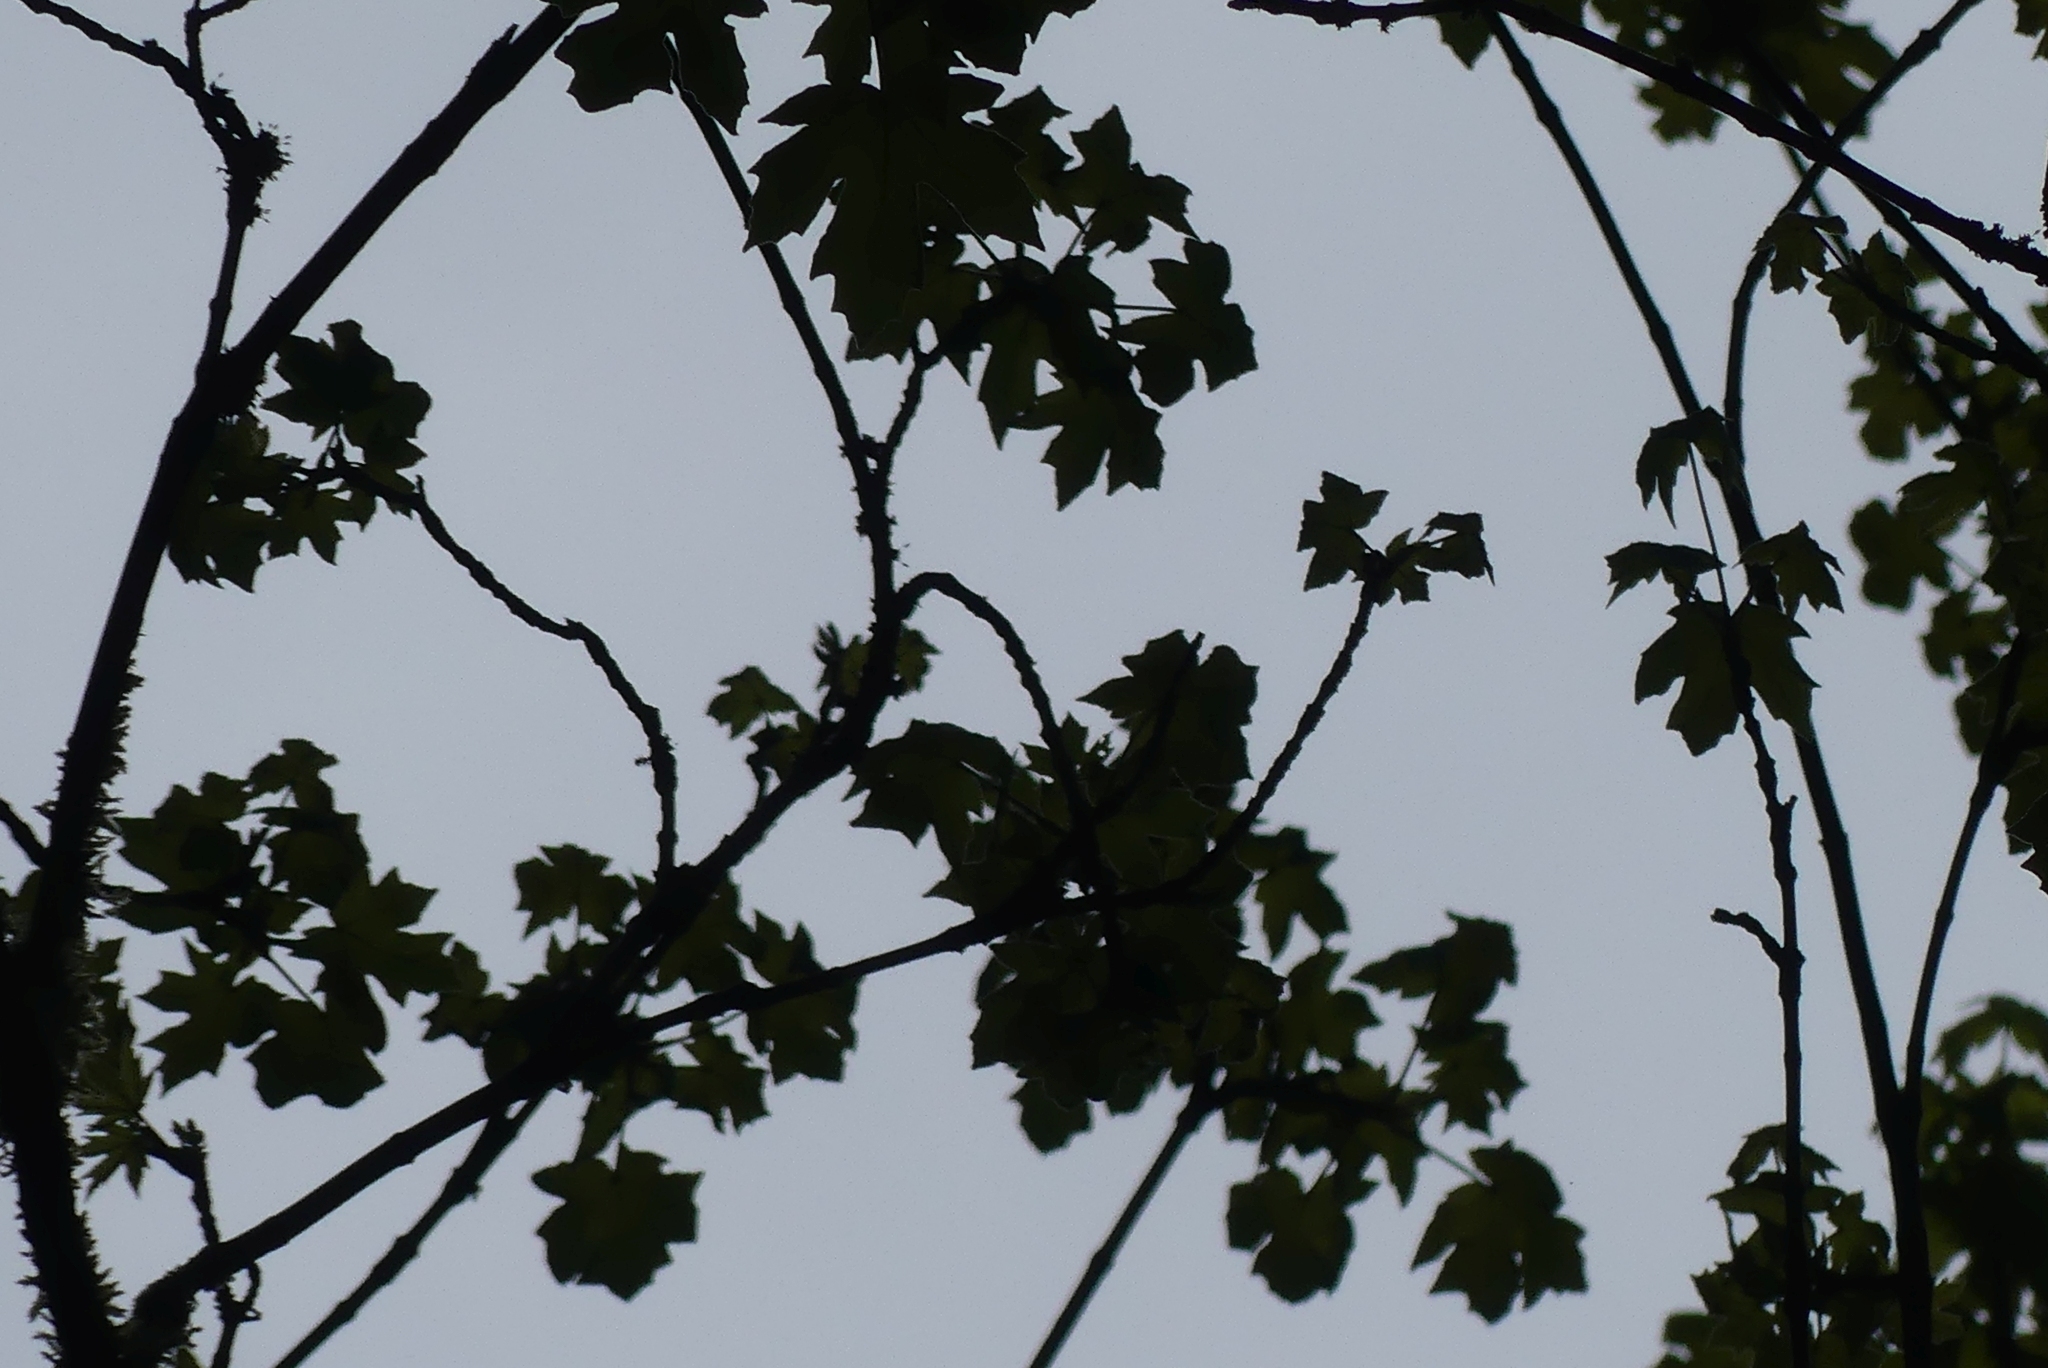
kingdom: Plantae
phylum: Tracheophyta
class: Magnoliopsida
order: Sapindales
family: Sapindaceae
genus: Acer
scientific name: Acer macrophyllum
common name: Oregon maple
